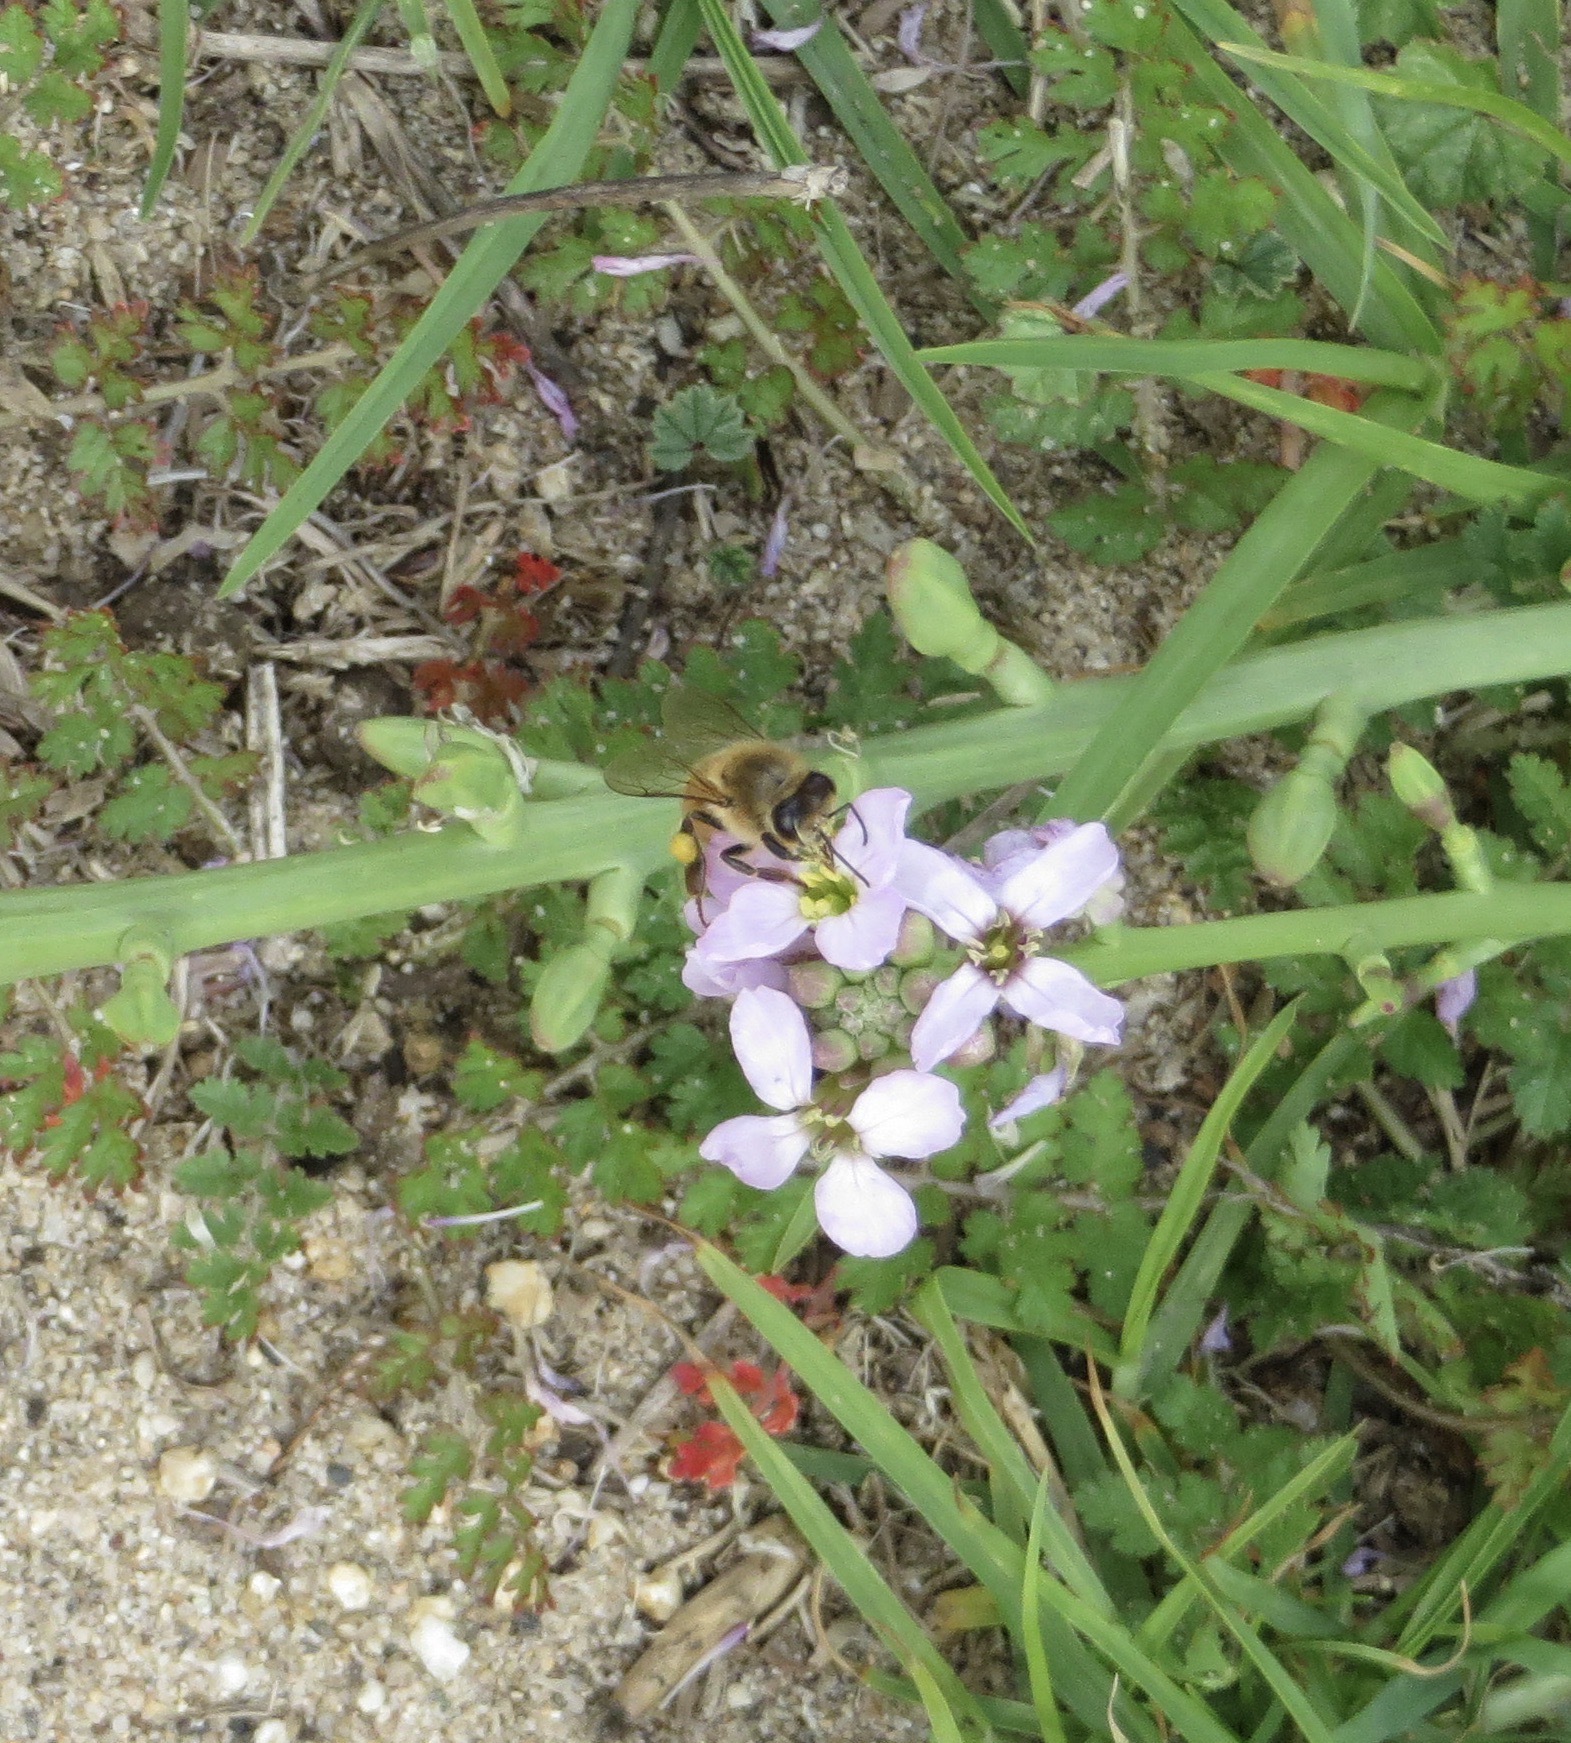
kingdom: Animalia
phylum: Arthropoda
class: Insecta
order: Hymenoptera
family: Apidae
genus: Apis
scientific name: Apis mellifera
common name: Honey bee
